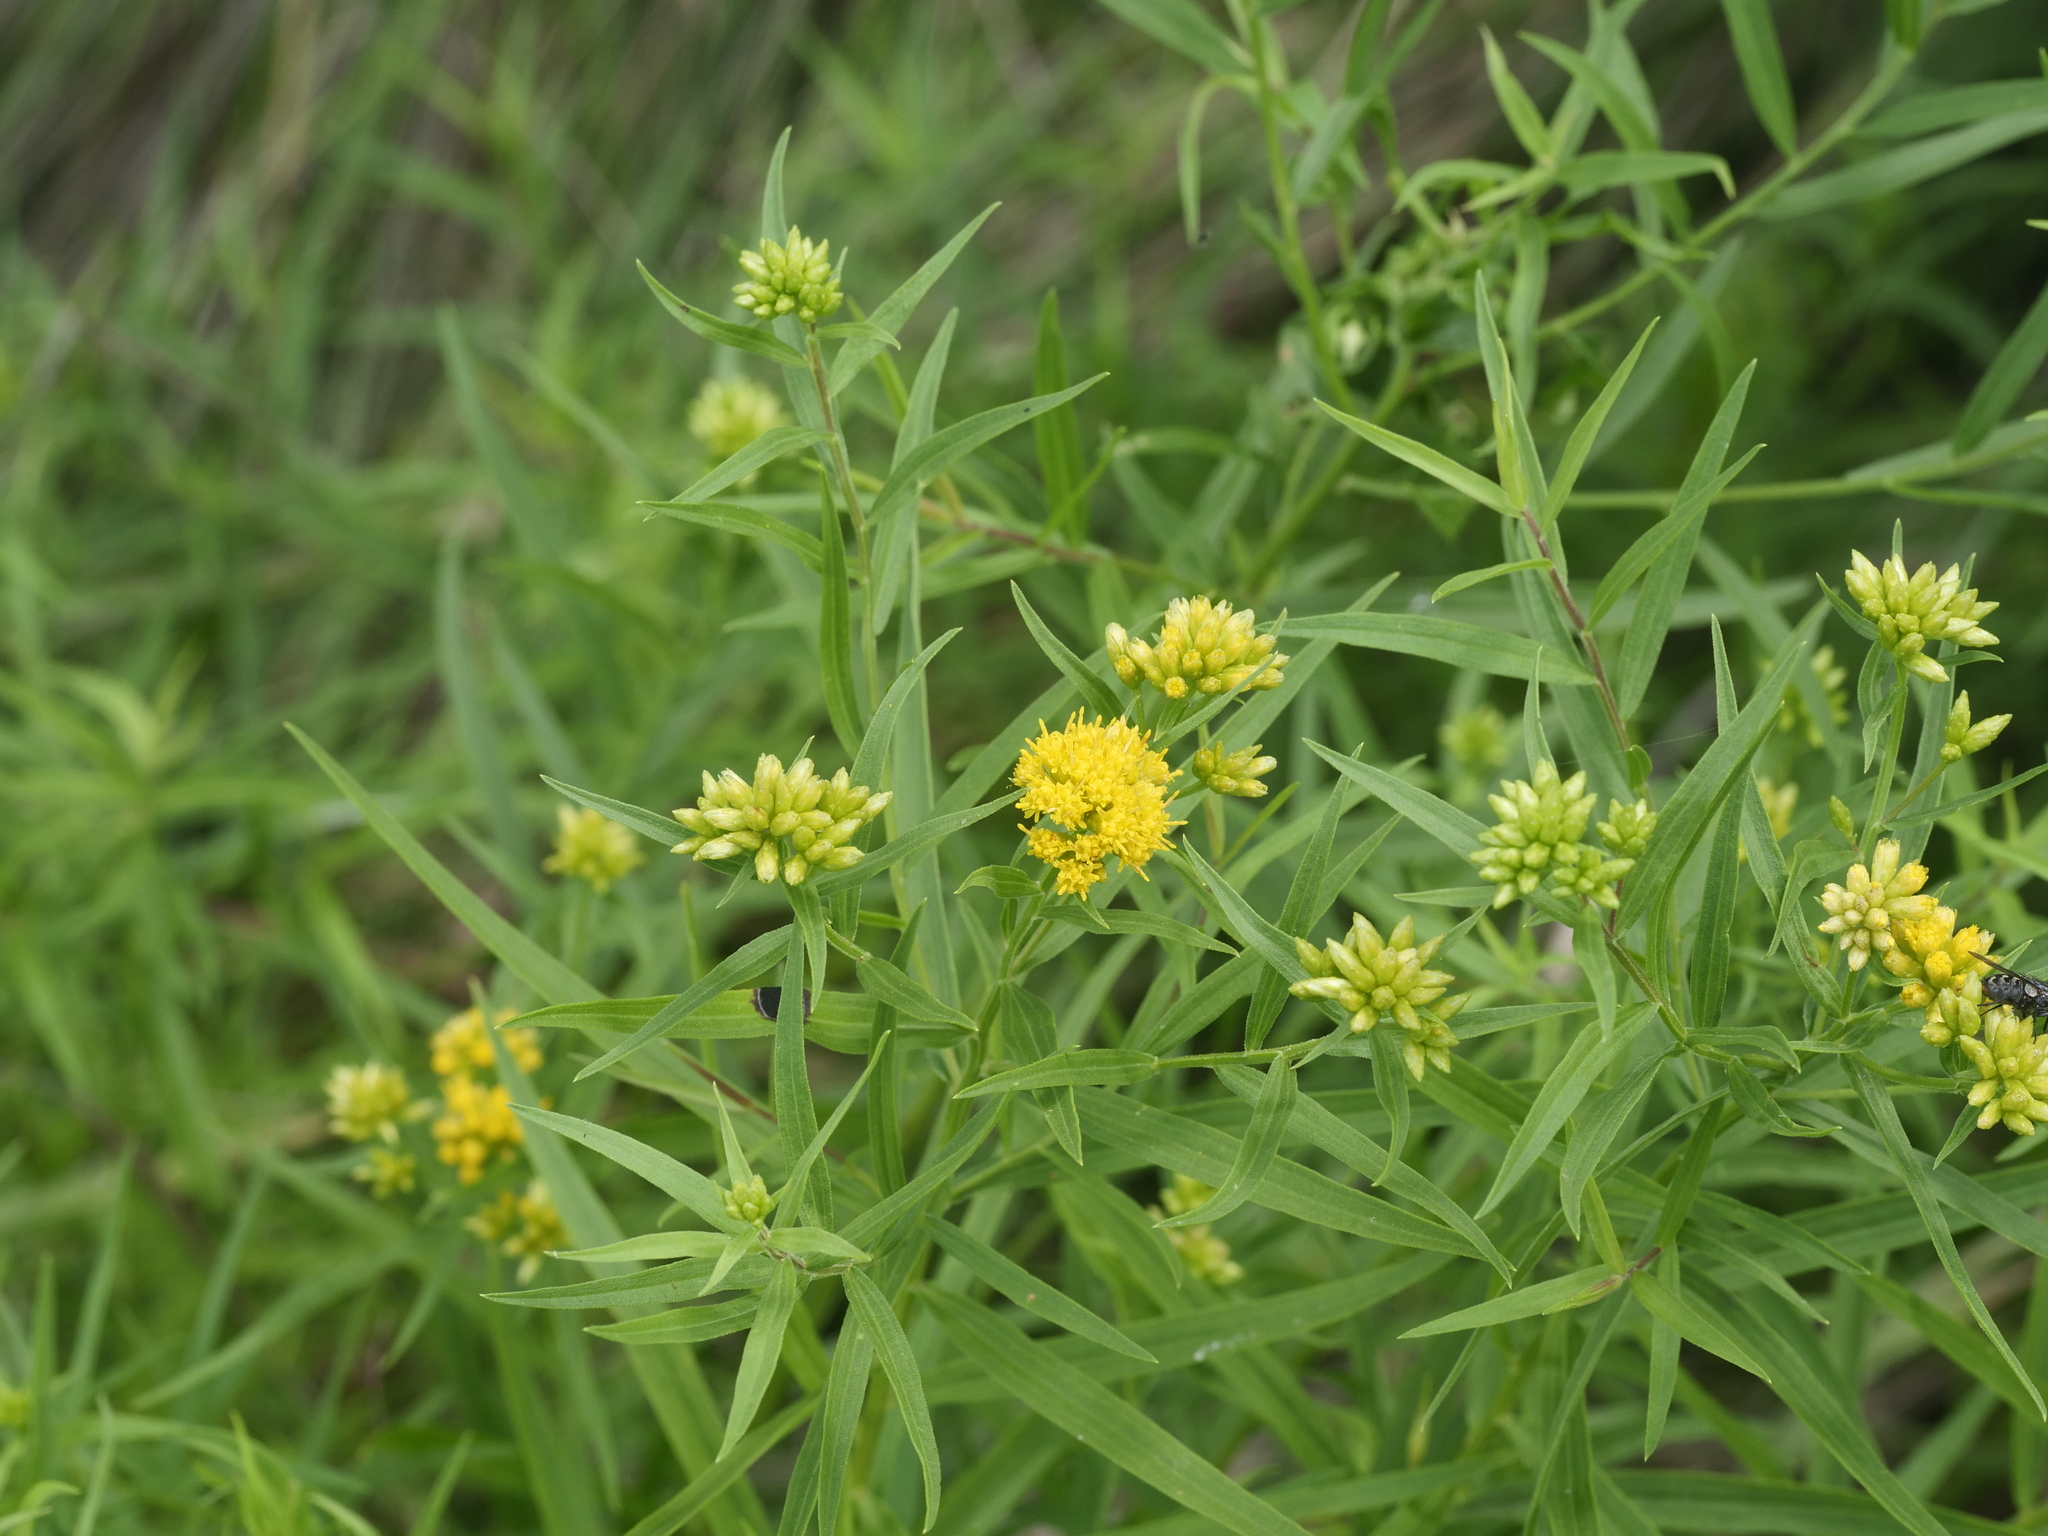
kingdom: Plantae
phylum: Tracheophyta
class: Magnoliopsida
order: Asterales
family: Asteraceae
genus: Euthamia
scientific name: Euthamia graminifolia
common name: Common goldentop
